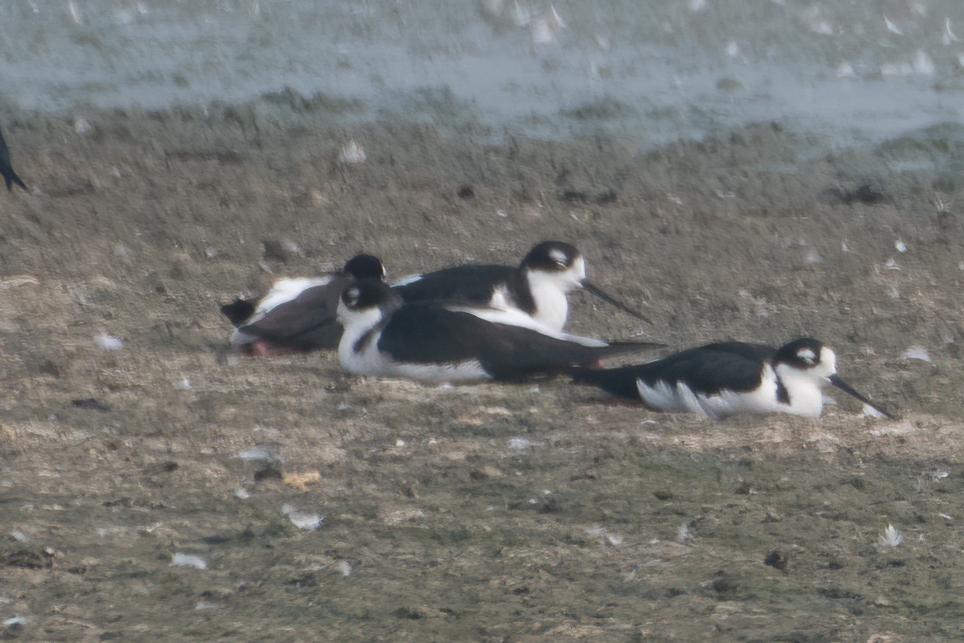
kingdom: Animalia
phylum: Chordata
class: Aves
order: Charadriiformes
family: Recurvirostridae
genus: Himantopus
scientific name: Himantopus mexicanus
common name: Black-necked stilt
